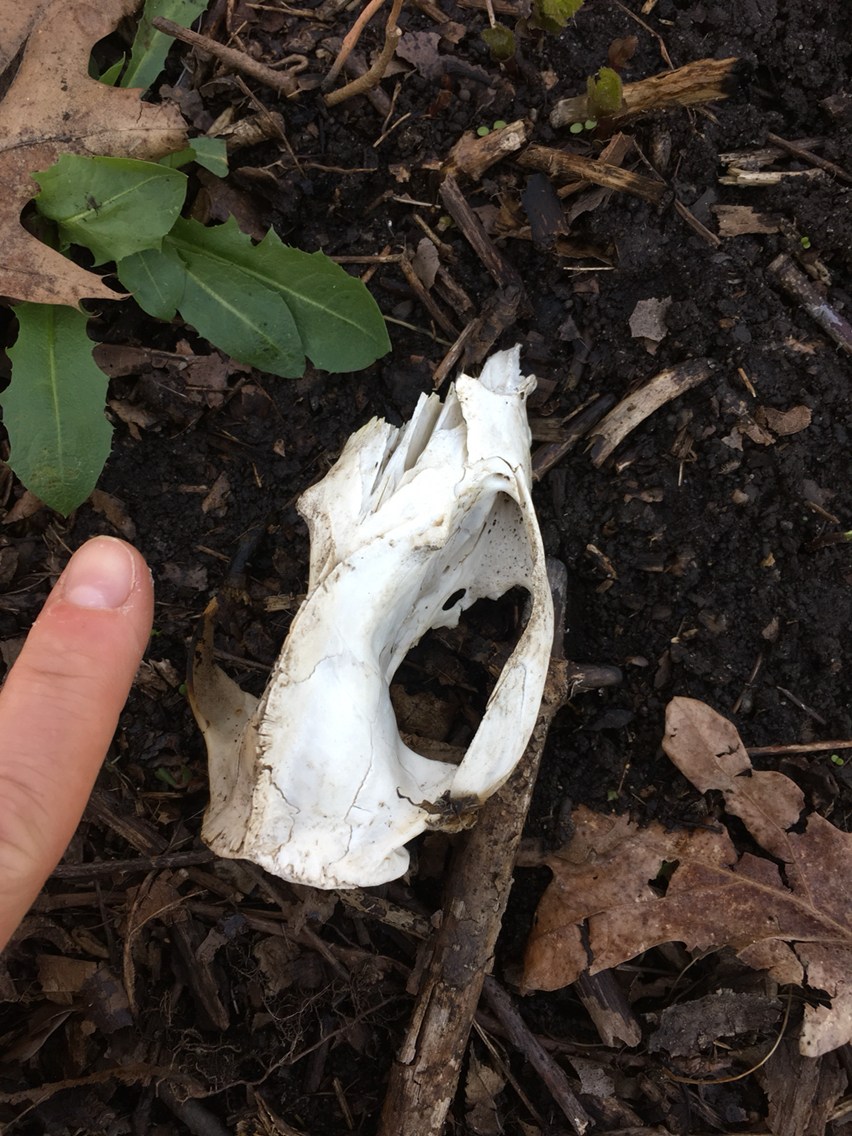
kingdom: Animalia
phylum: Chordata
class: Mammalia
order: Didelphimorphia
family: Didelphidae
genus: Didelphis
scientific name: Didelphis virginiana
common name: Virginia opossum
